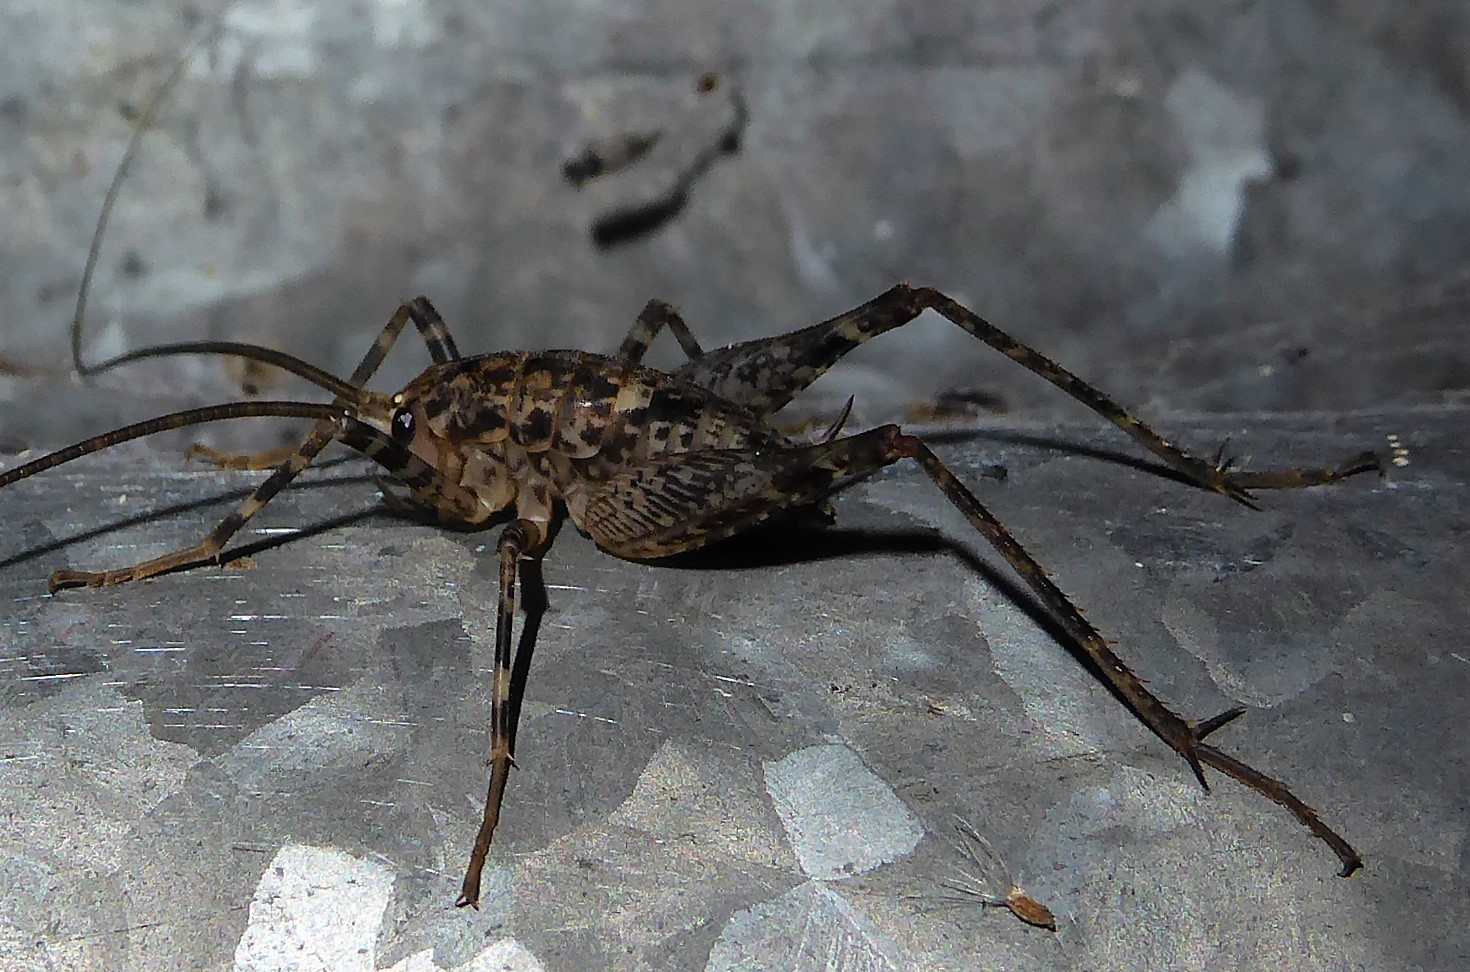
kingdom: Animalia
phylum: Arthropoda
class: Insecta
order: Orthoptera
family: Rhaphidophoridae
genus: Pleioplectron
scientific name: Pleioplectron simplex
